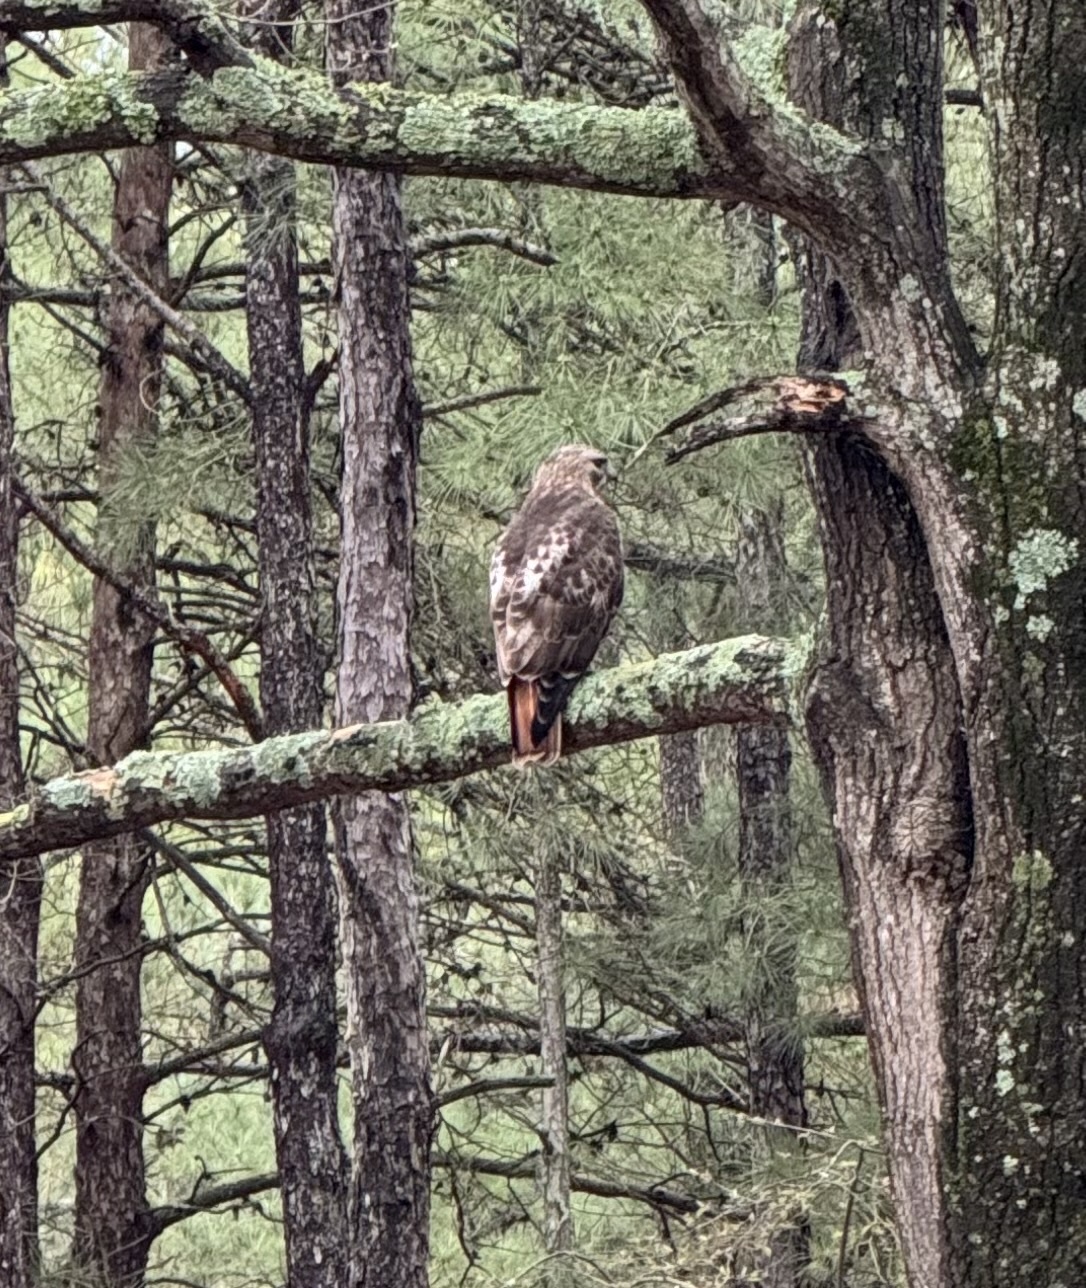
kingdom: Animalia
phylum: Chordata
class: Aves
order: Accipitriformes
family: Accipitridae
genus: Buteo
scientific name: Buteo jamaicensis
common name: Red-tailed hawk
